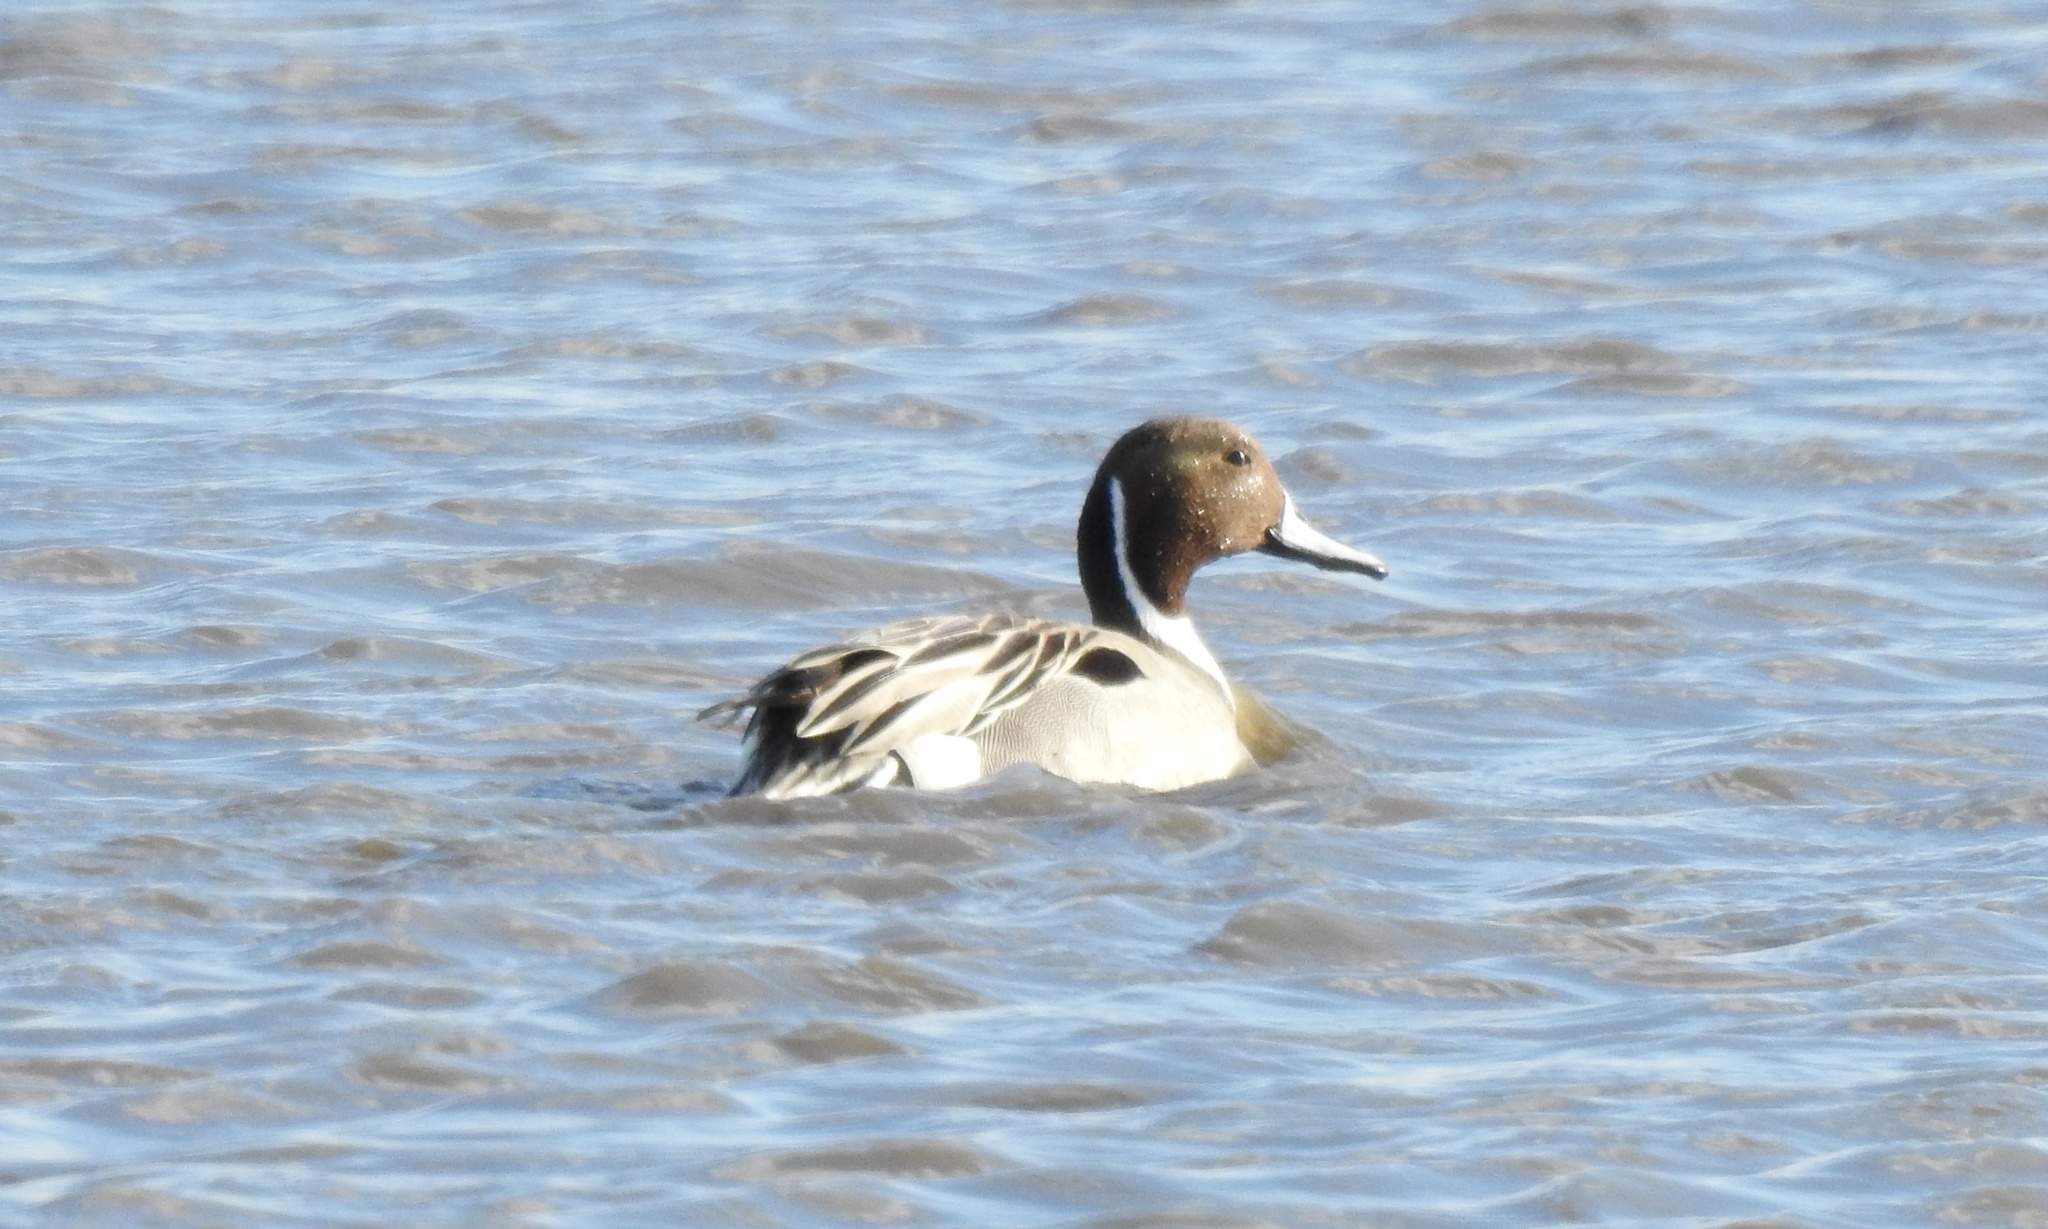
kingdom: Animalia
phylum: Chordata
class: Aves
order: Anseriformes
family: Anatidae
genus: Anas
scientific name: Anas acuta
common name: Northern pintail
